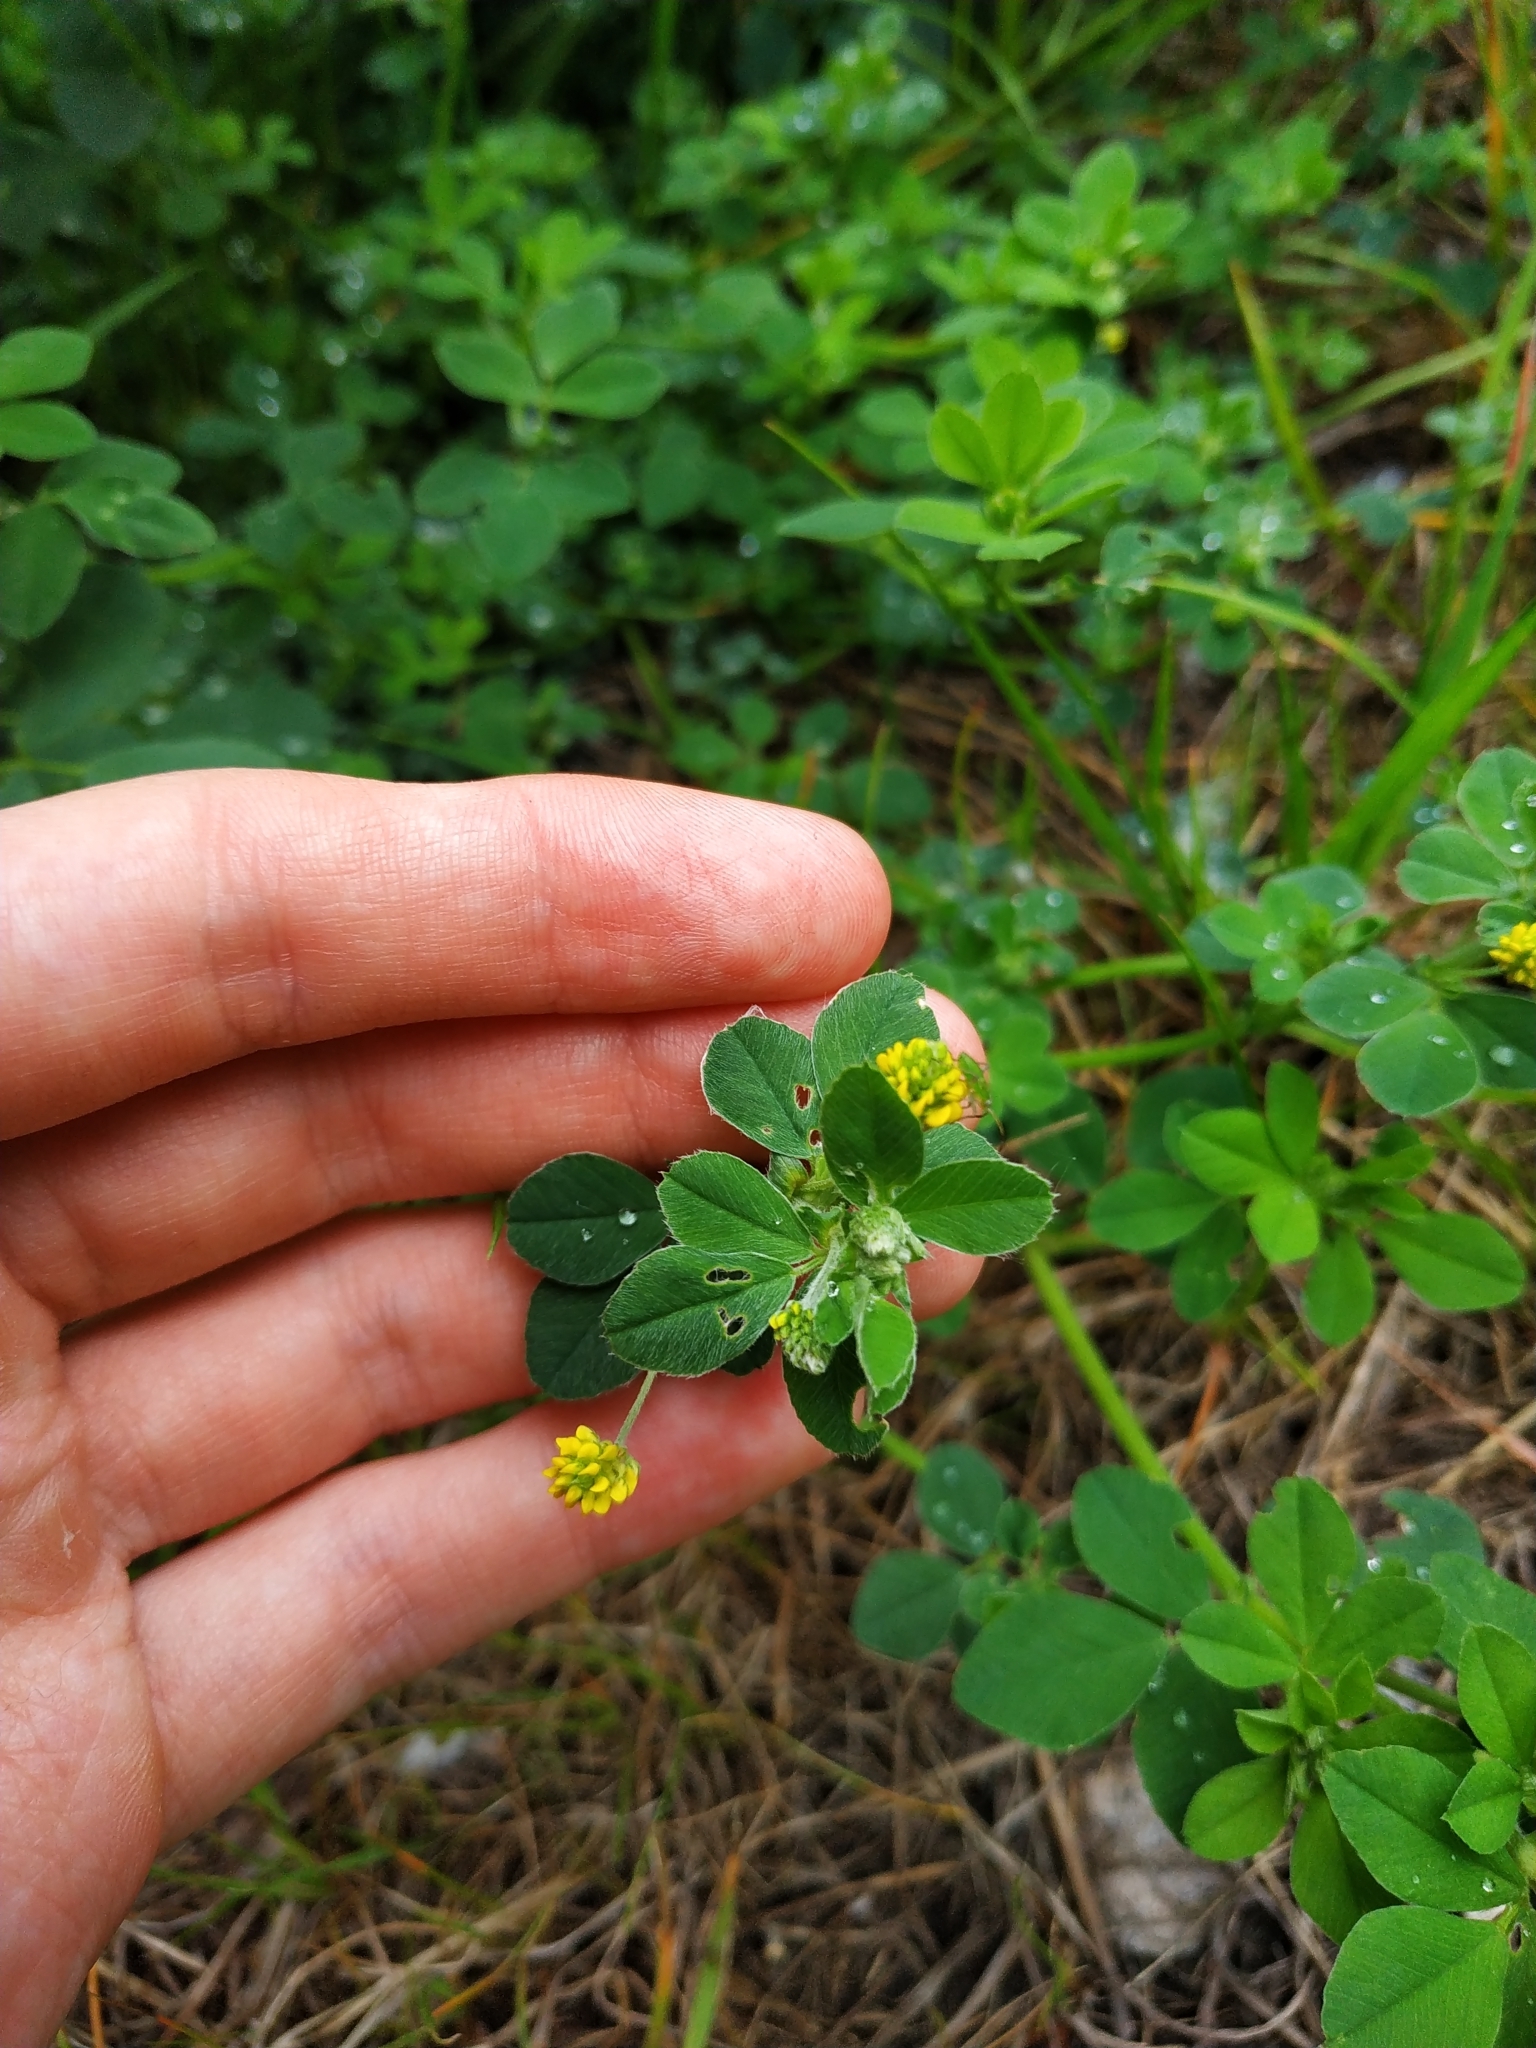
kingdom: Plantae
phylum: Tracheophyta
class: Magnoliopsida
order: Fabales
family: Fabaceae
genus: Medicago
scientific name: Medicago lupulina
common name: Black medick
